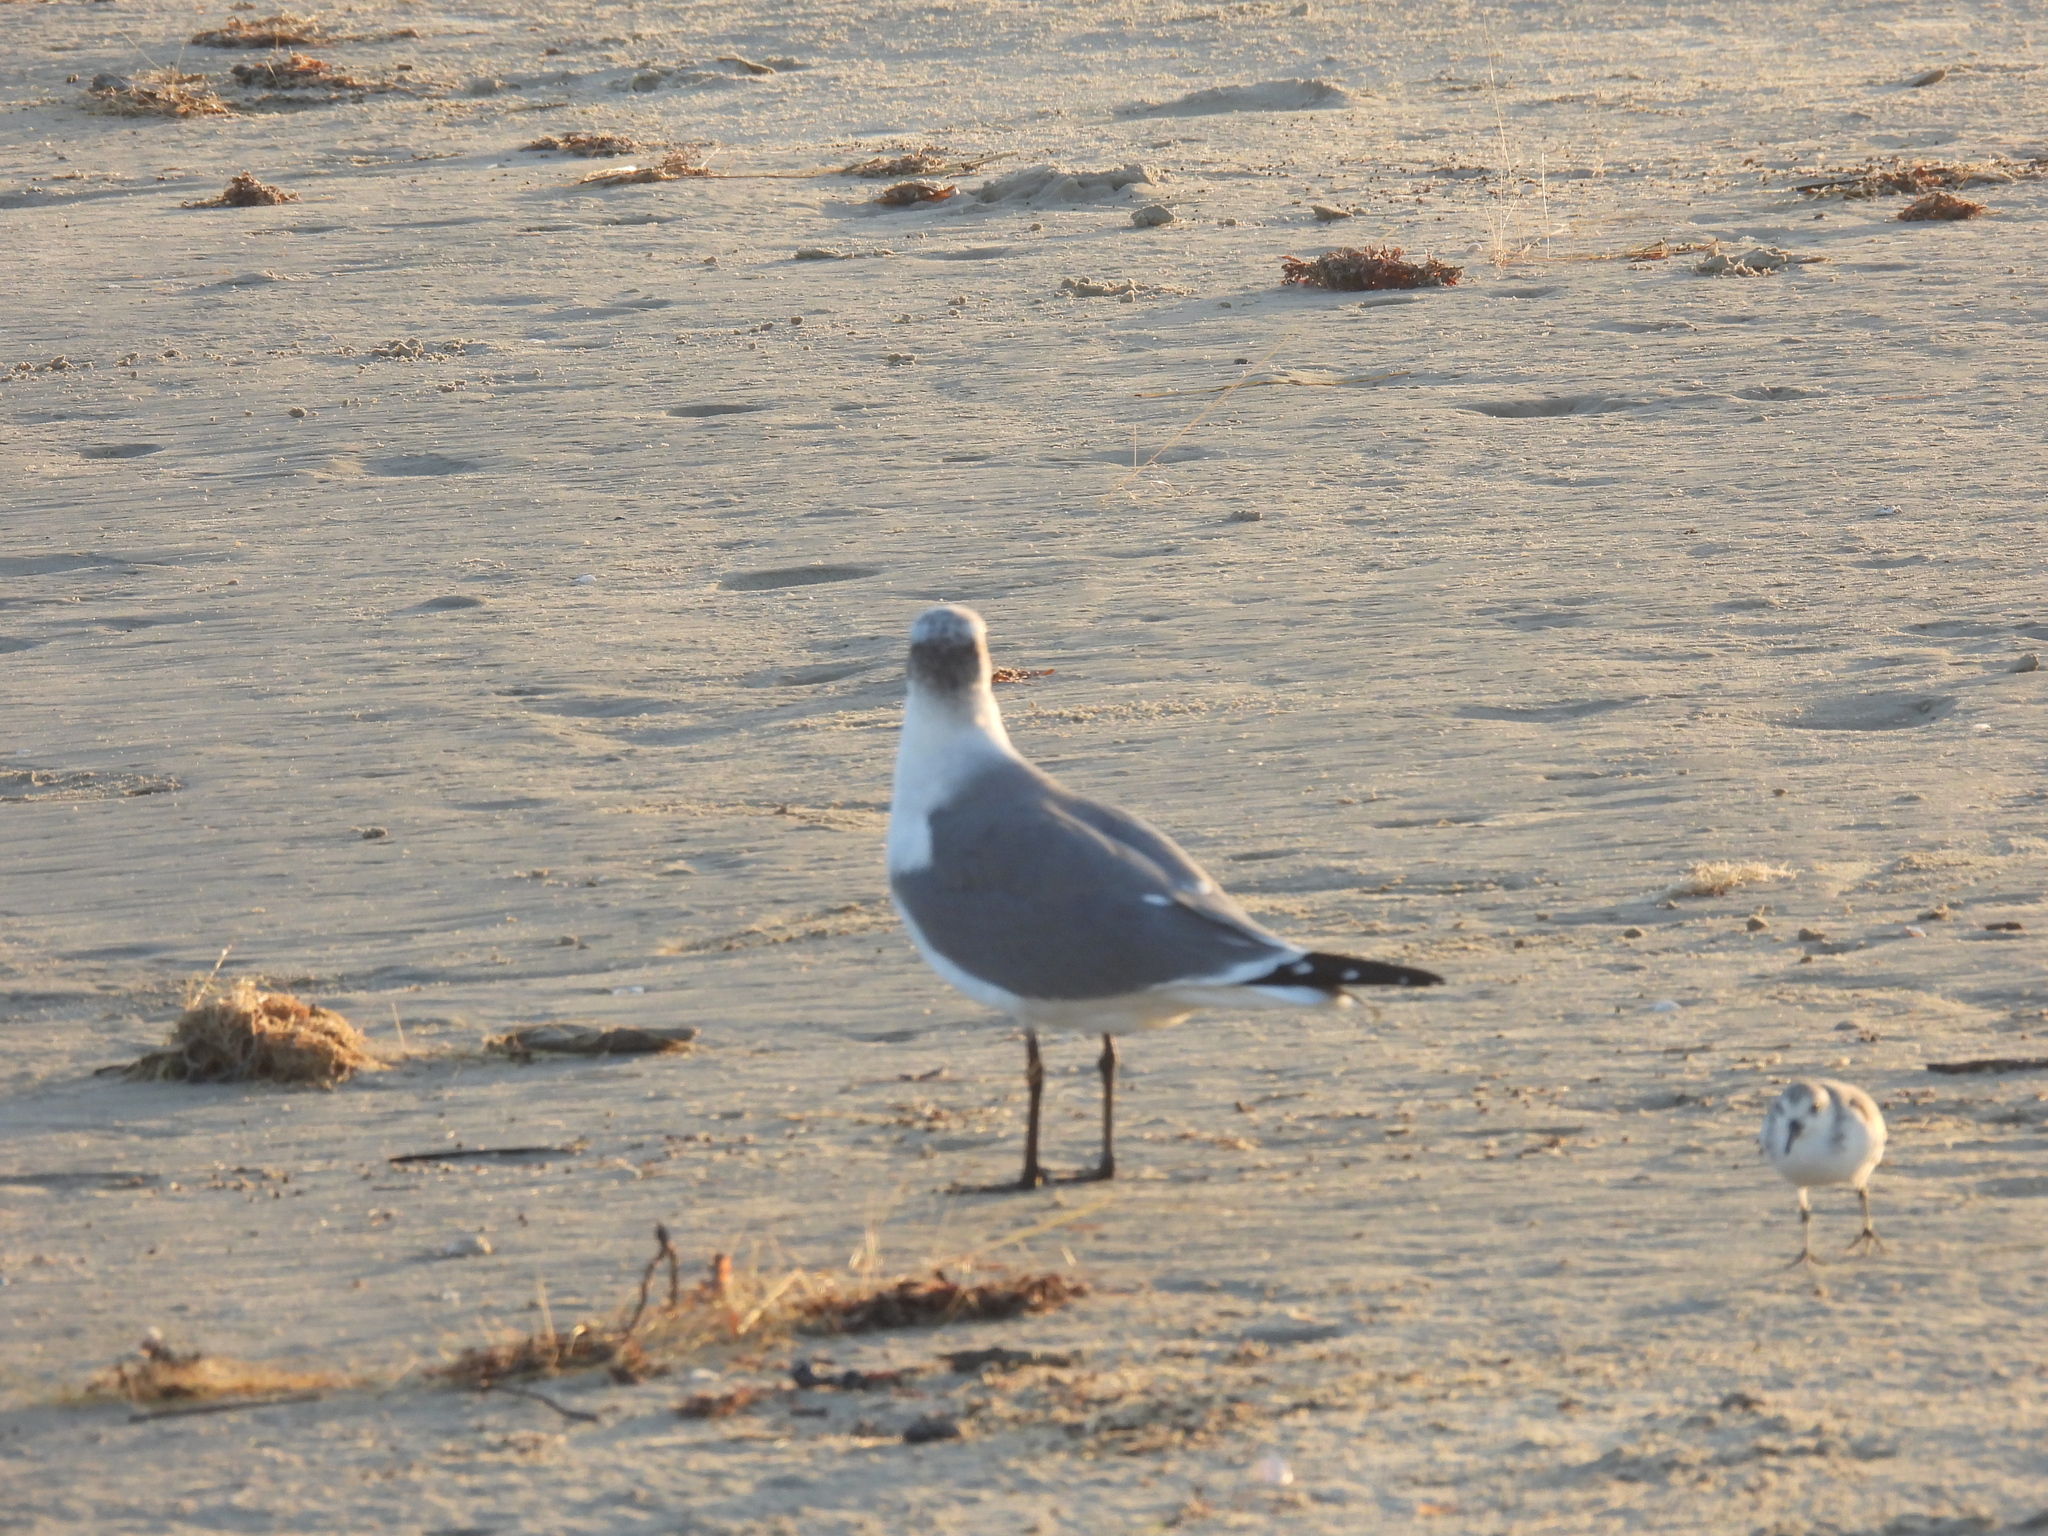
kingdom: Animalia
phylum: Chordata
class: Aves
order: Charadriiformes
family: Laridae
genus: Leucophaeus
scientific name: Leucophaeus atricilla
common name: Laughing gull
